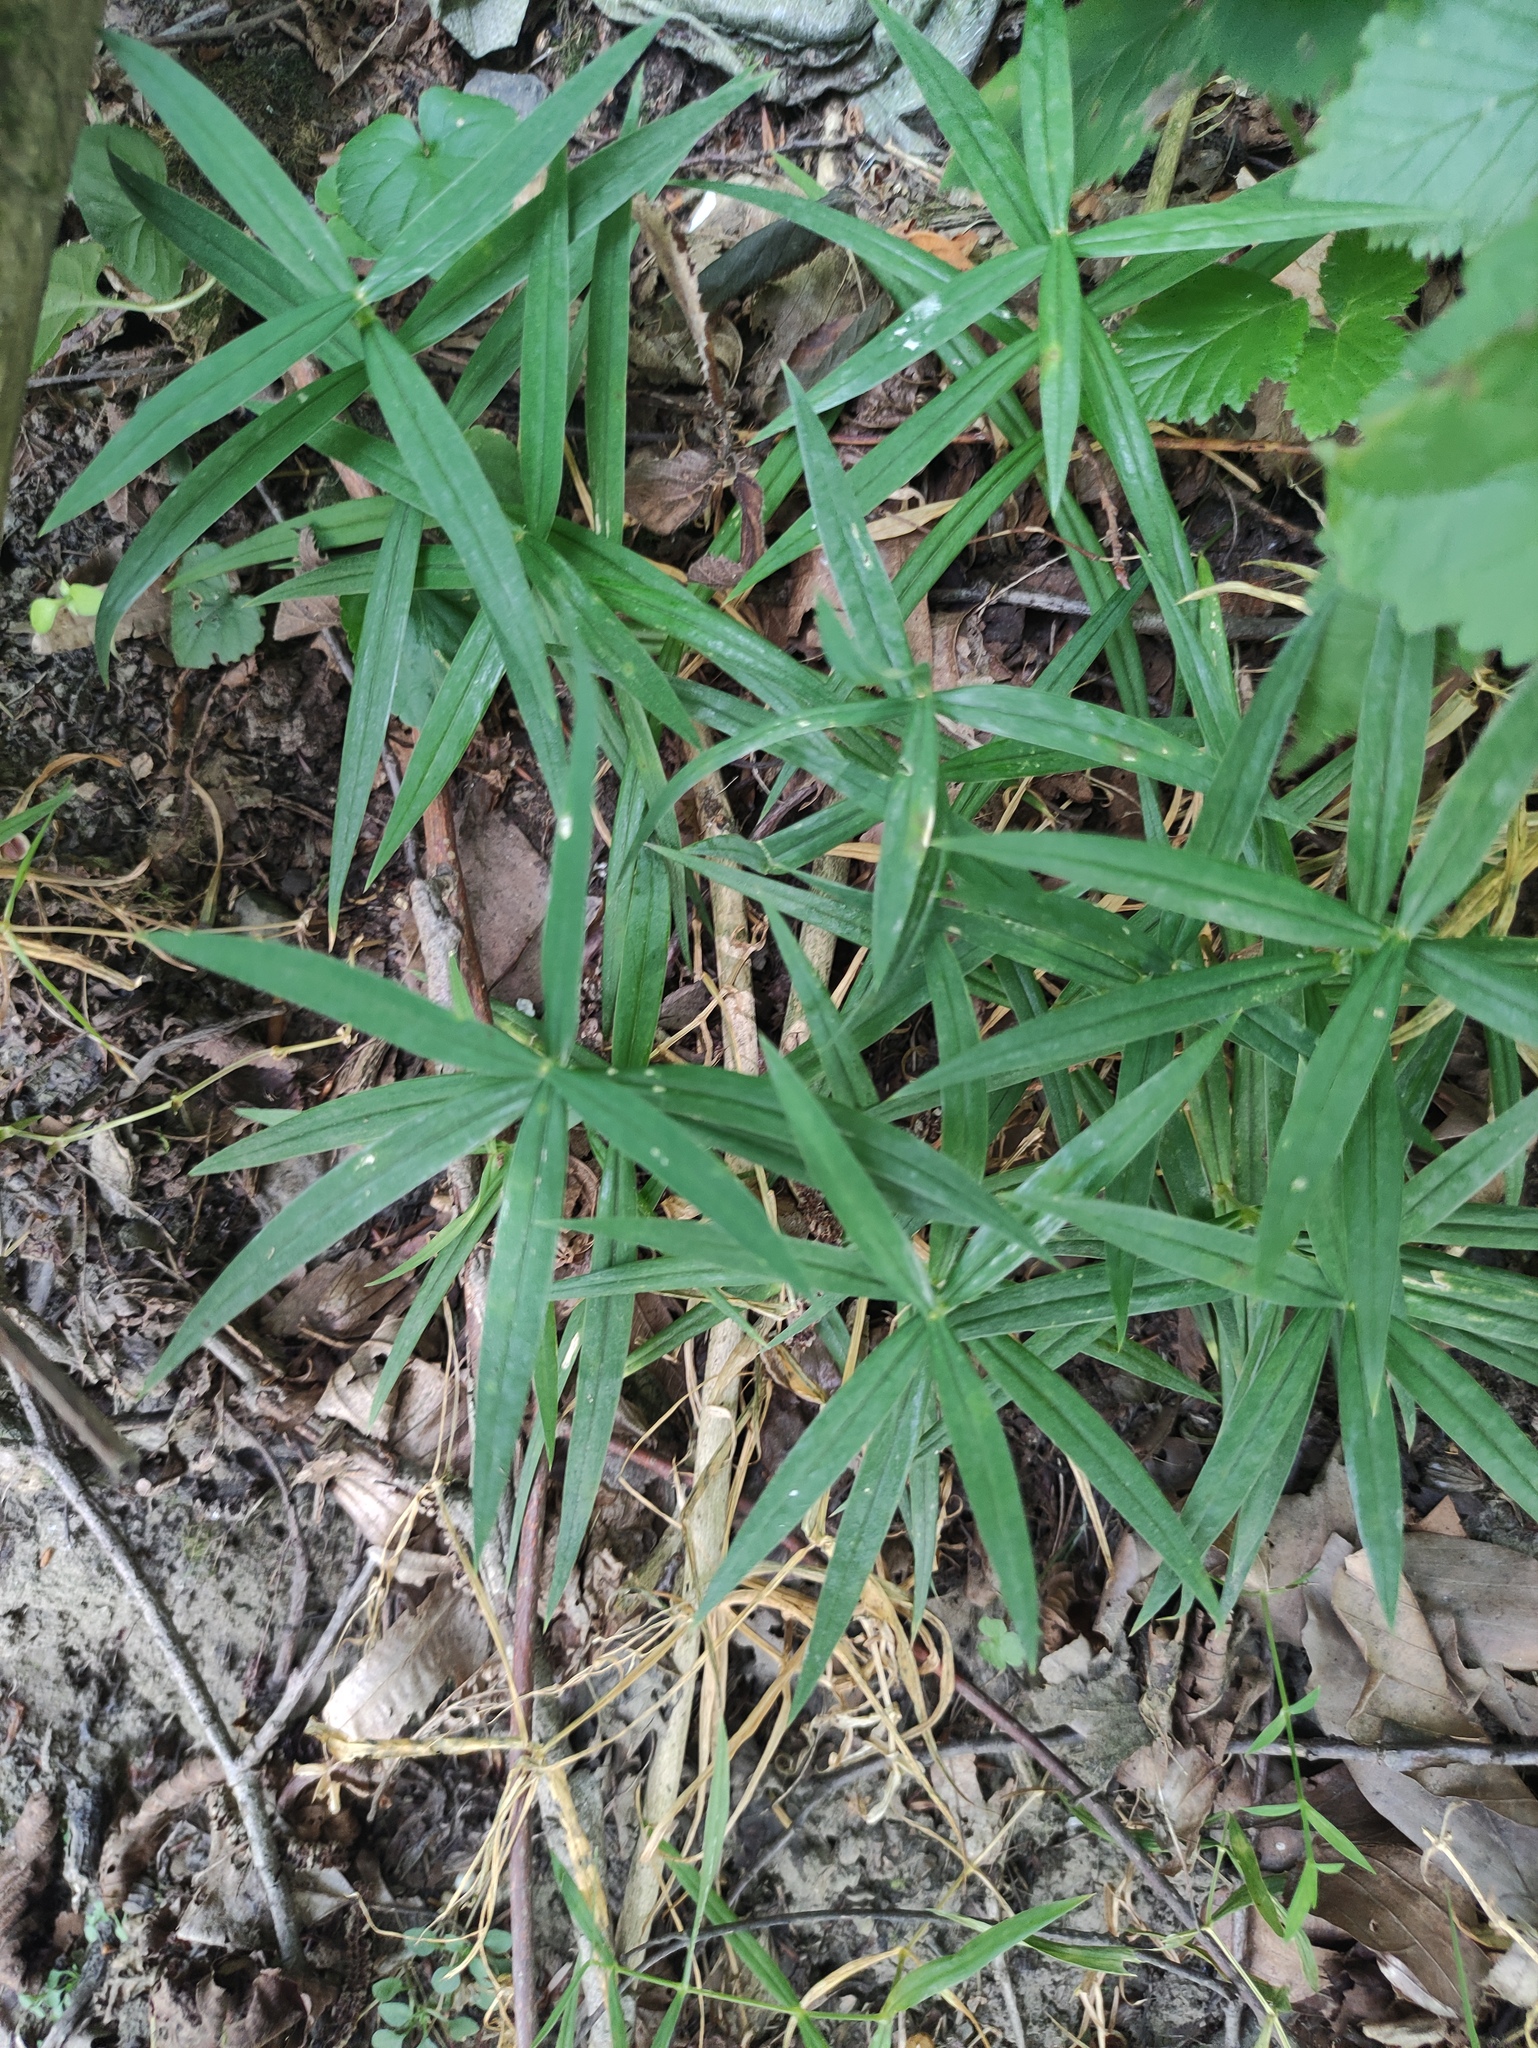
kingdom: Plantae
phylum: Tracheophyta
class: Magnoliopsida
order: Caryophyllales
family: Caryophyllaceae
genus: Rabelera
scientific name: Rabelera holostea
